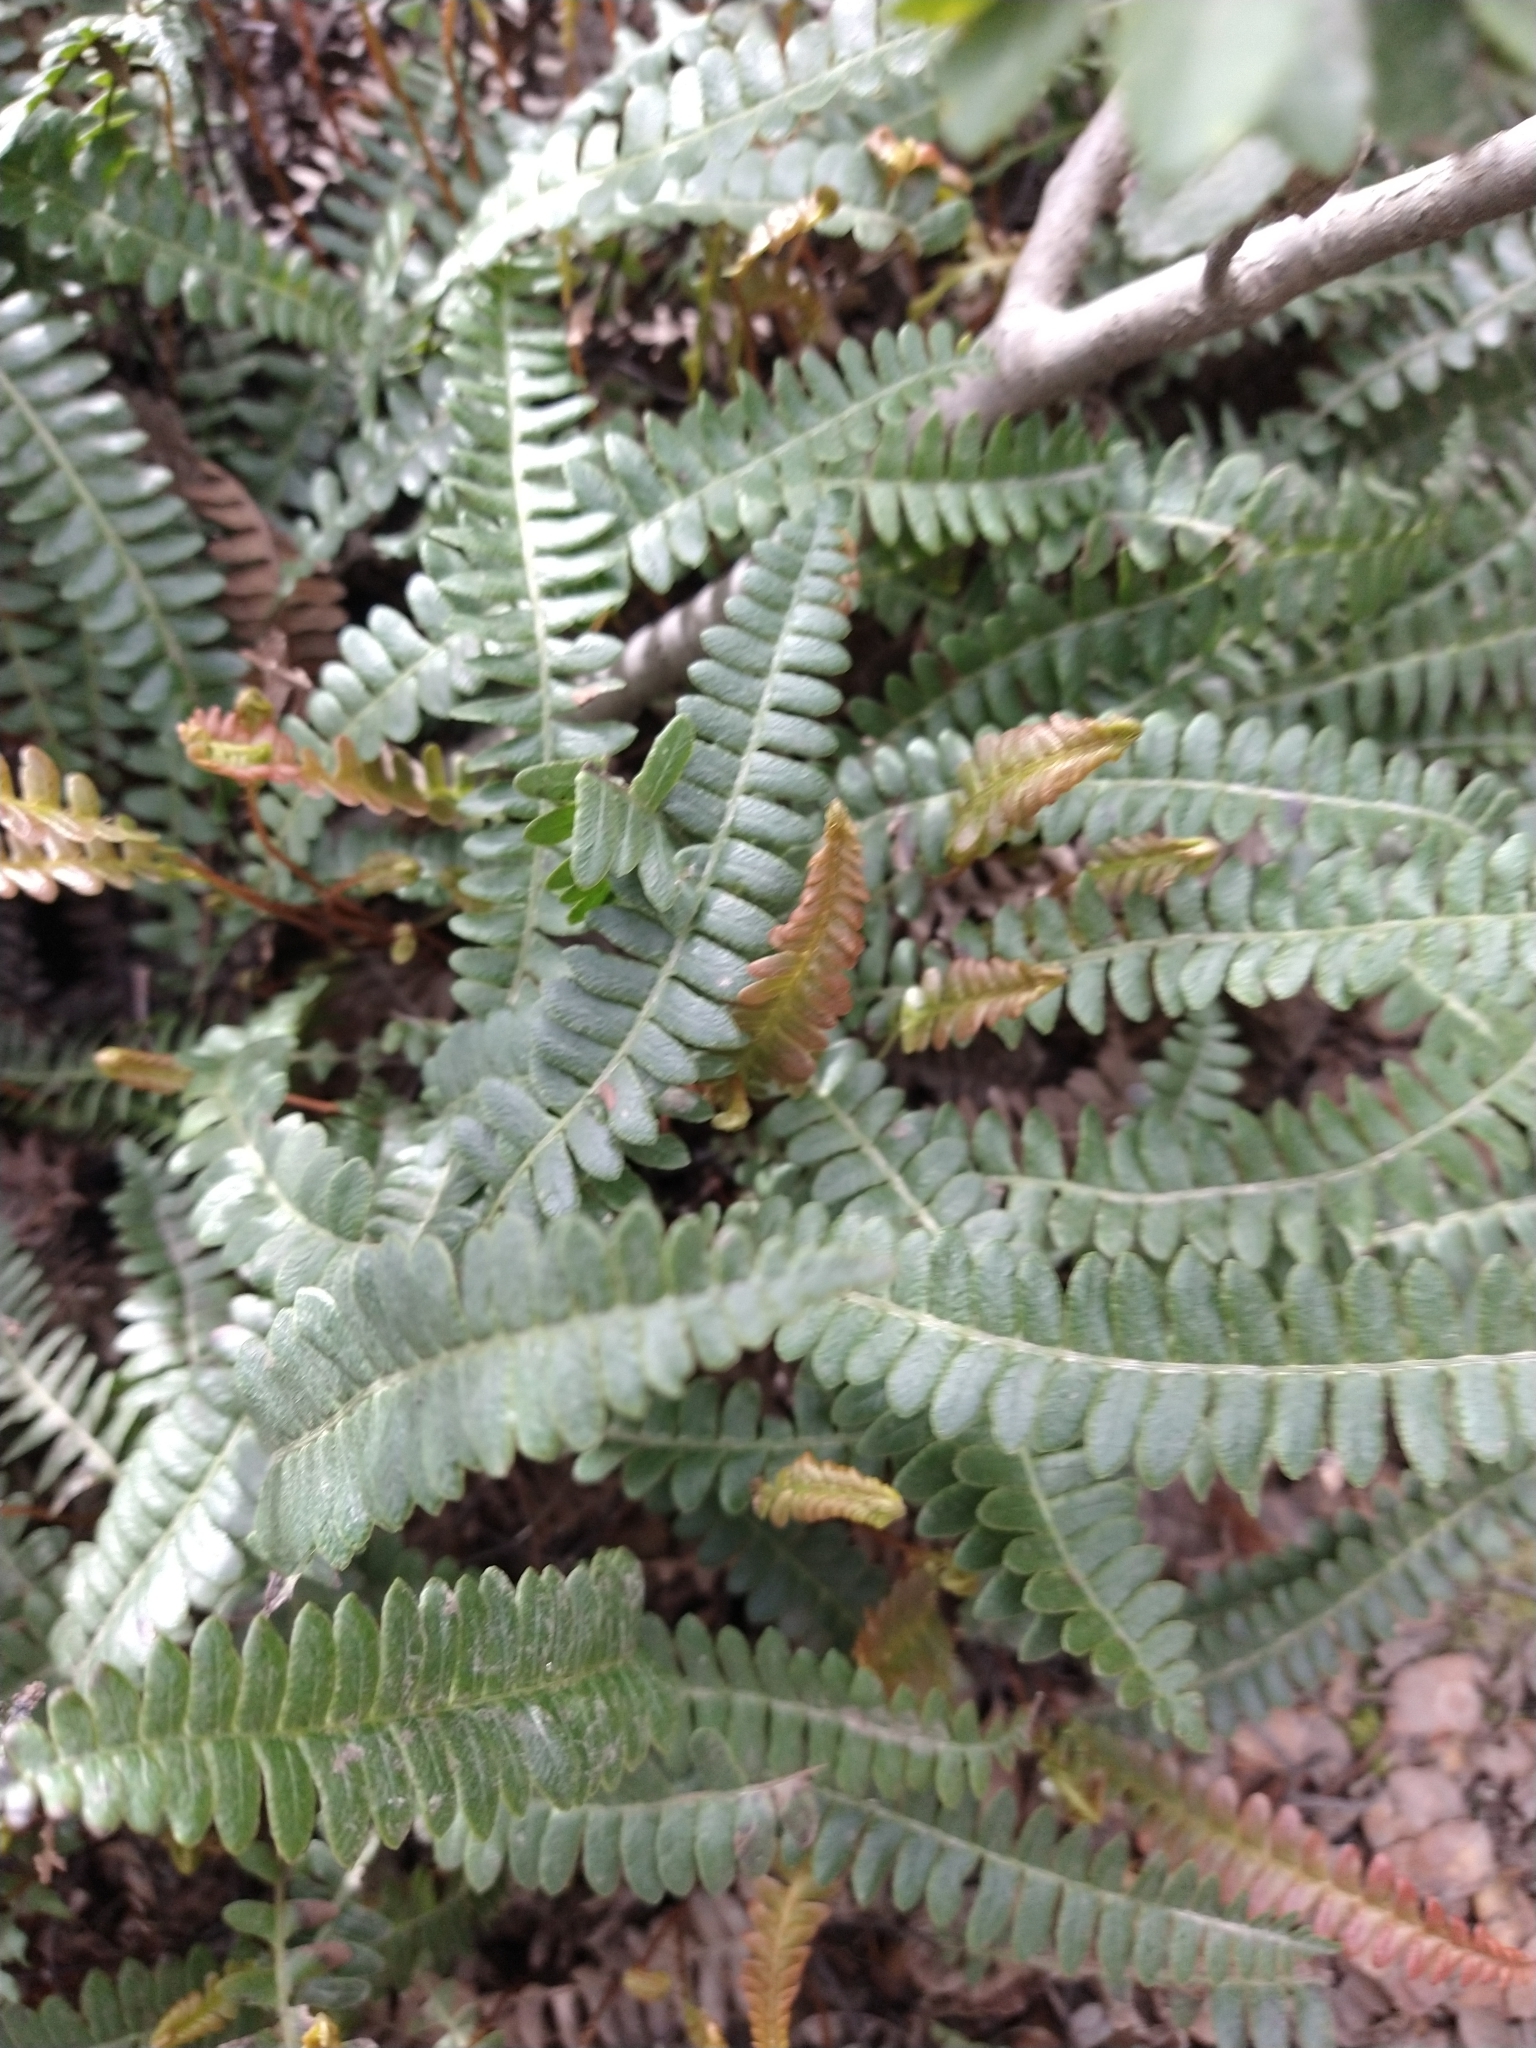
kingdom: Plantae
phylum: Tracheophyta
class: Polypodiopsida
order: Polypodiales
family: Blechnaceae
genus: Austroblechnum
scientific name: Austroblechnum penna-marina
